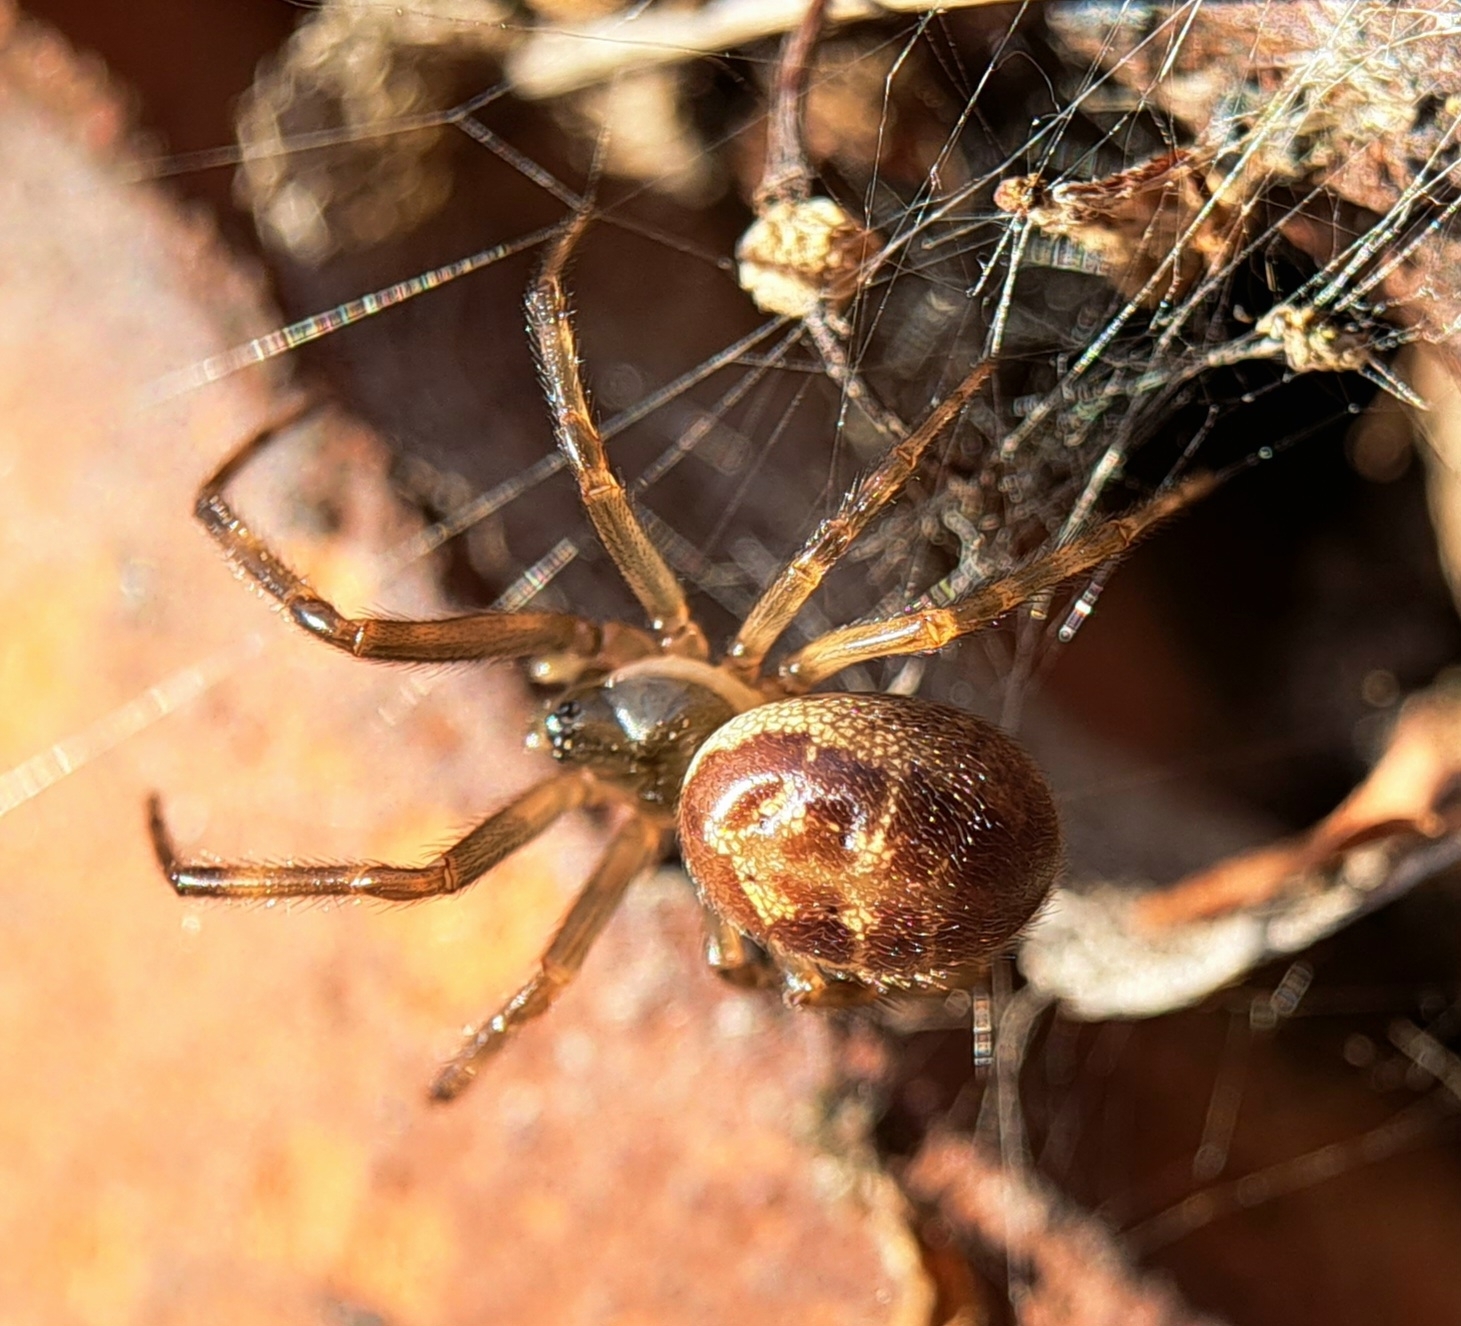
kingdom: Animalia
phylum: Arthropoda
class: Arachnida
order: Araneae
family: Theridiidae
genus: Steatoda
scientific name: Steatoda nobilis
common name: Cobweb weaver
